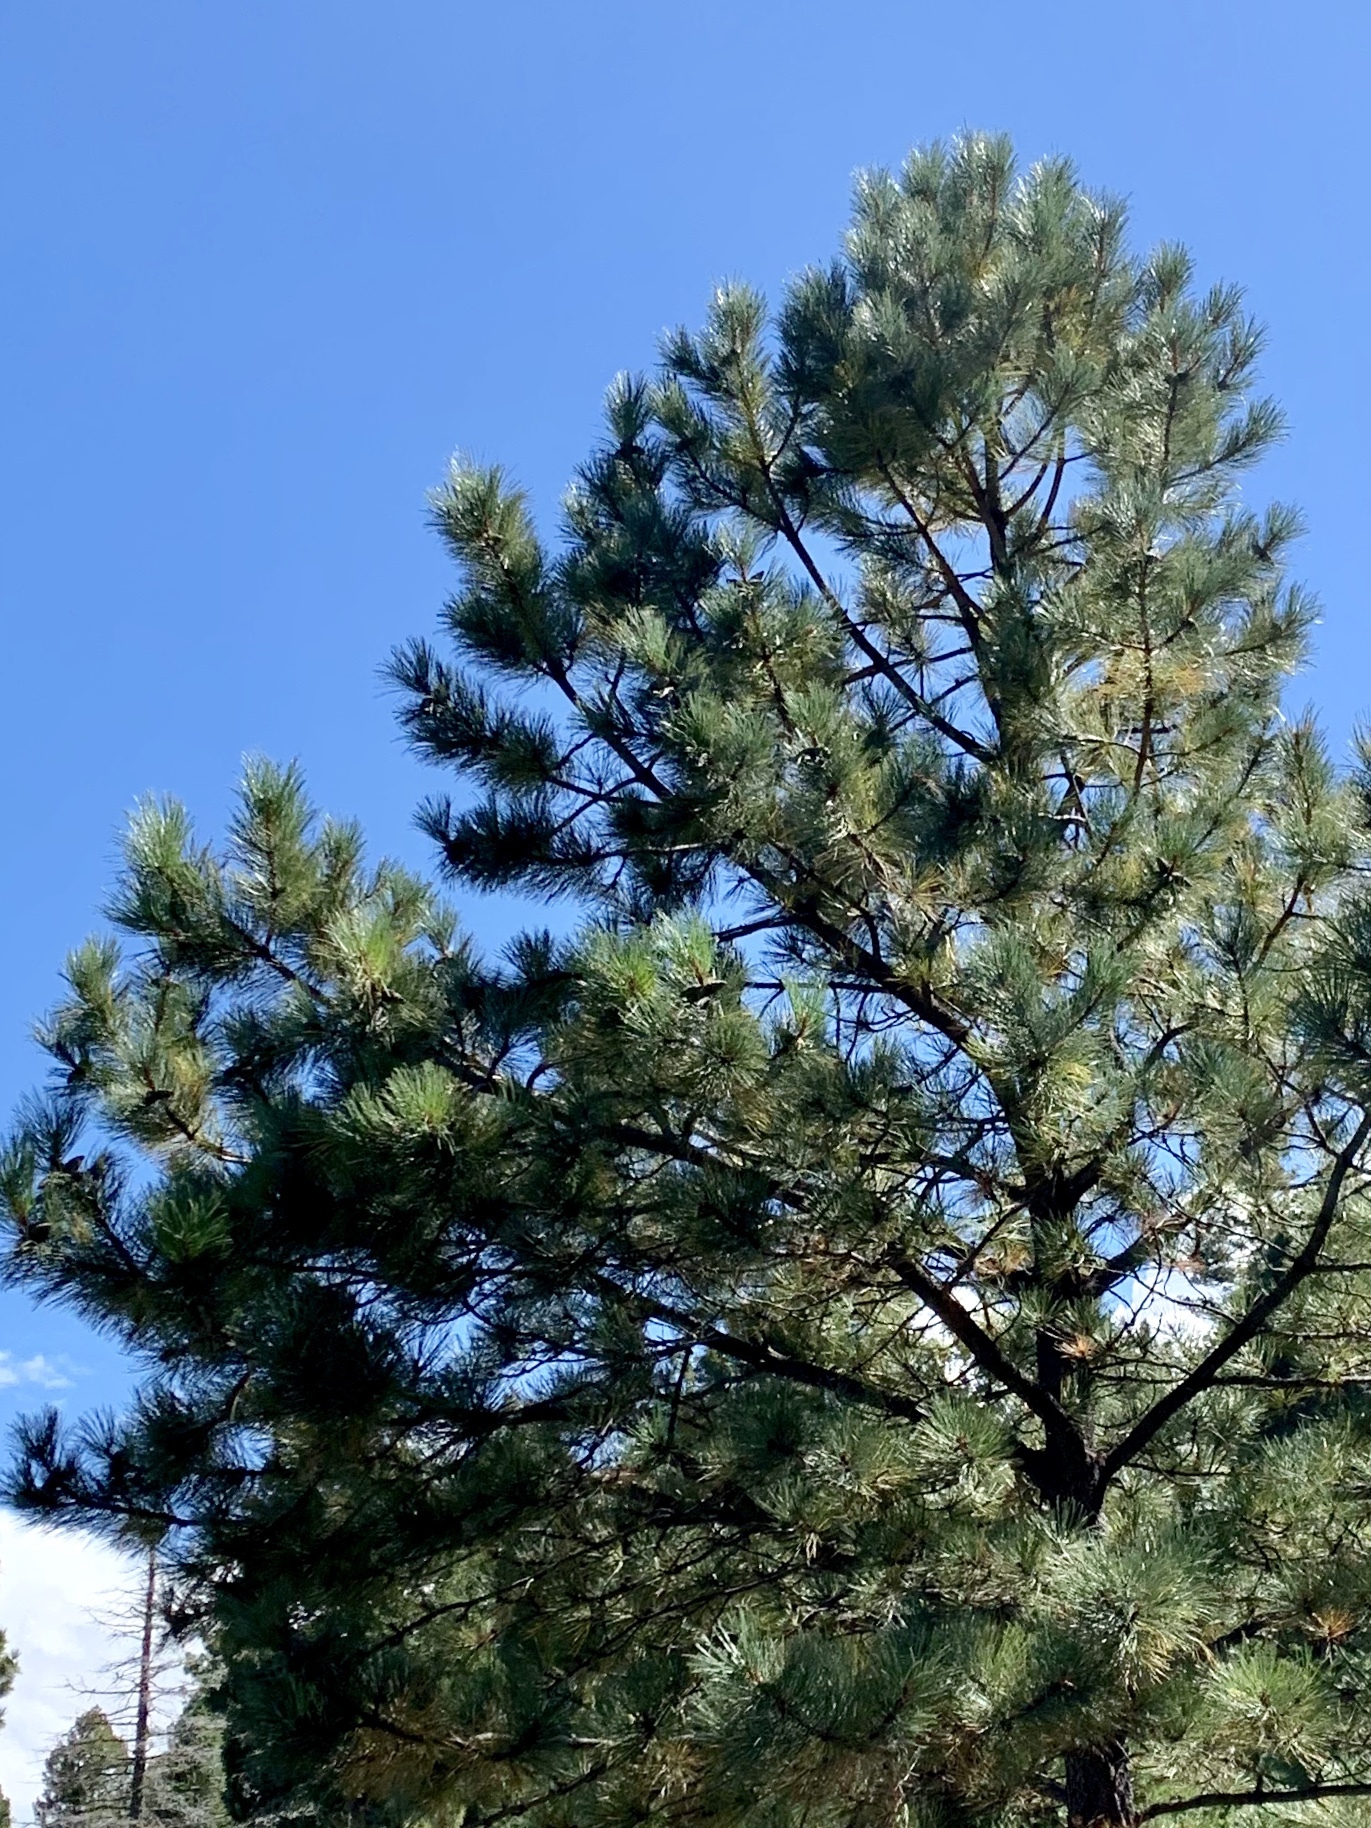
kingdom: Plantae
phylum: Tracheophyta
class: Pinopsida
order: Pinales
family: Pinaceae
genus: Pinus
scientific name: Pinus ponderosa
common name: Western yellow-pine
